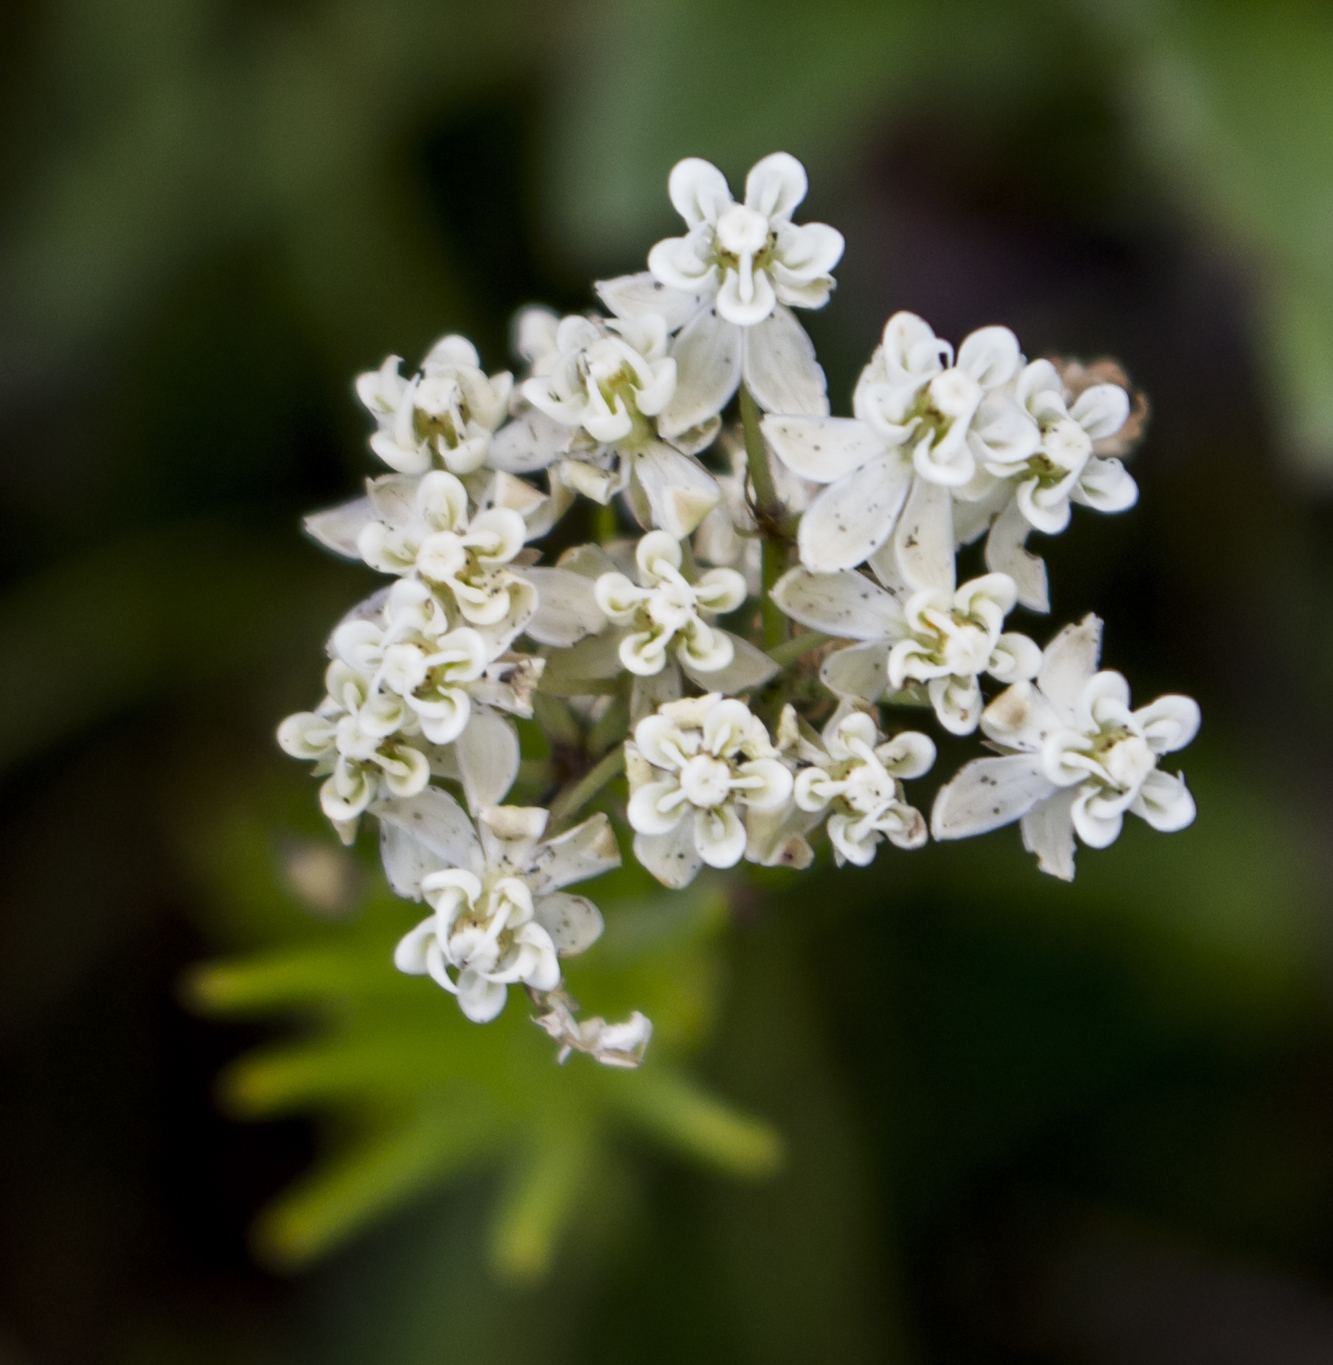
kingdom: Plantae
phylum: Tracheophyta
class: Magnoliopsida
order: Gentianales
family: Apocynaceae
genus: Asclepias
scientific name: Asclepias verticillata
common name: Eastern whorled milkweed
